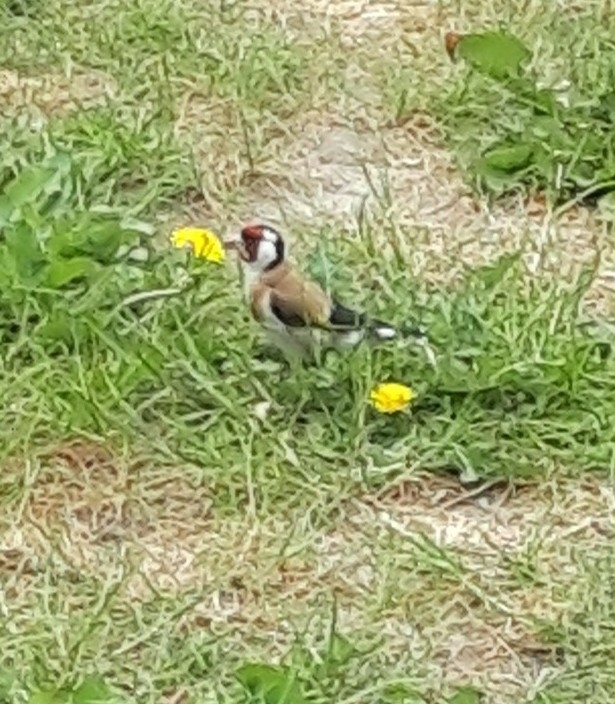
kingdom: Animalia
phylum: Chordata
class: Aves
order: Passeriformes
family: Fringillidae
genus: Carduelis
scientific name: Carduelis carduelis
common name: European goldfinch
